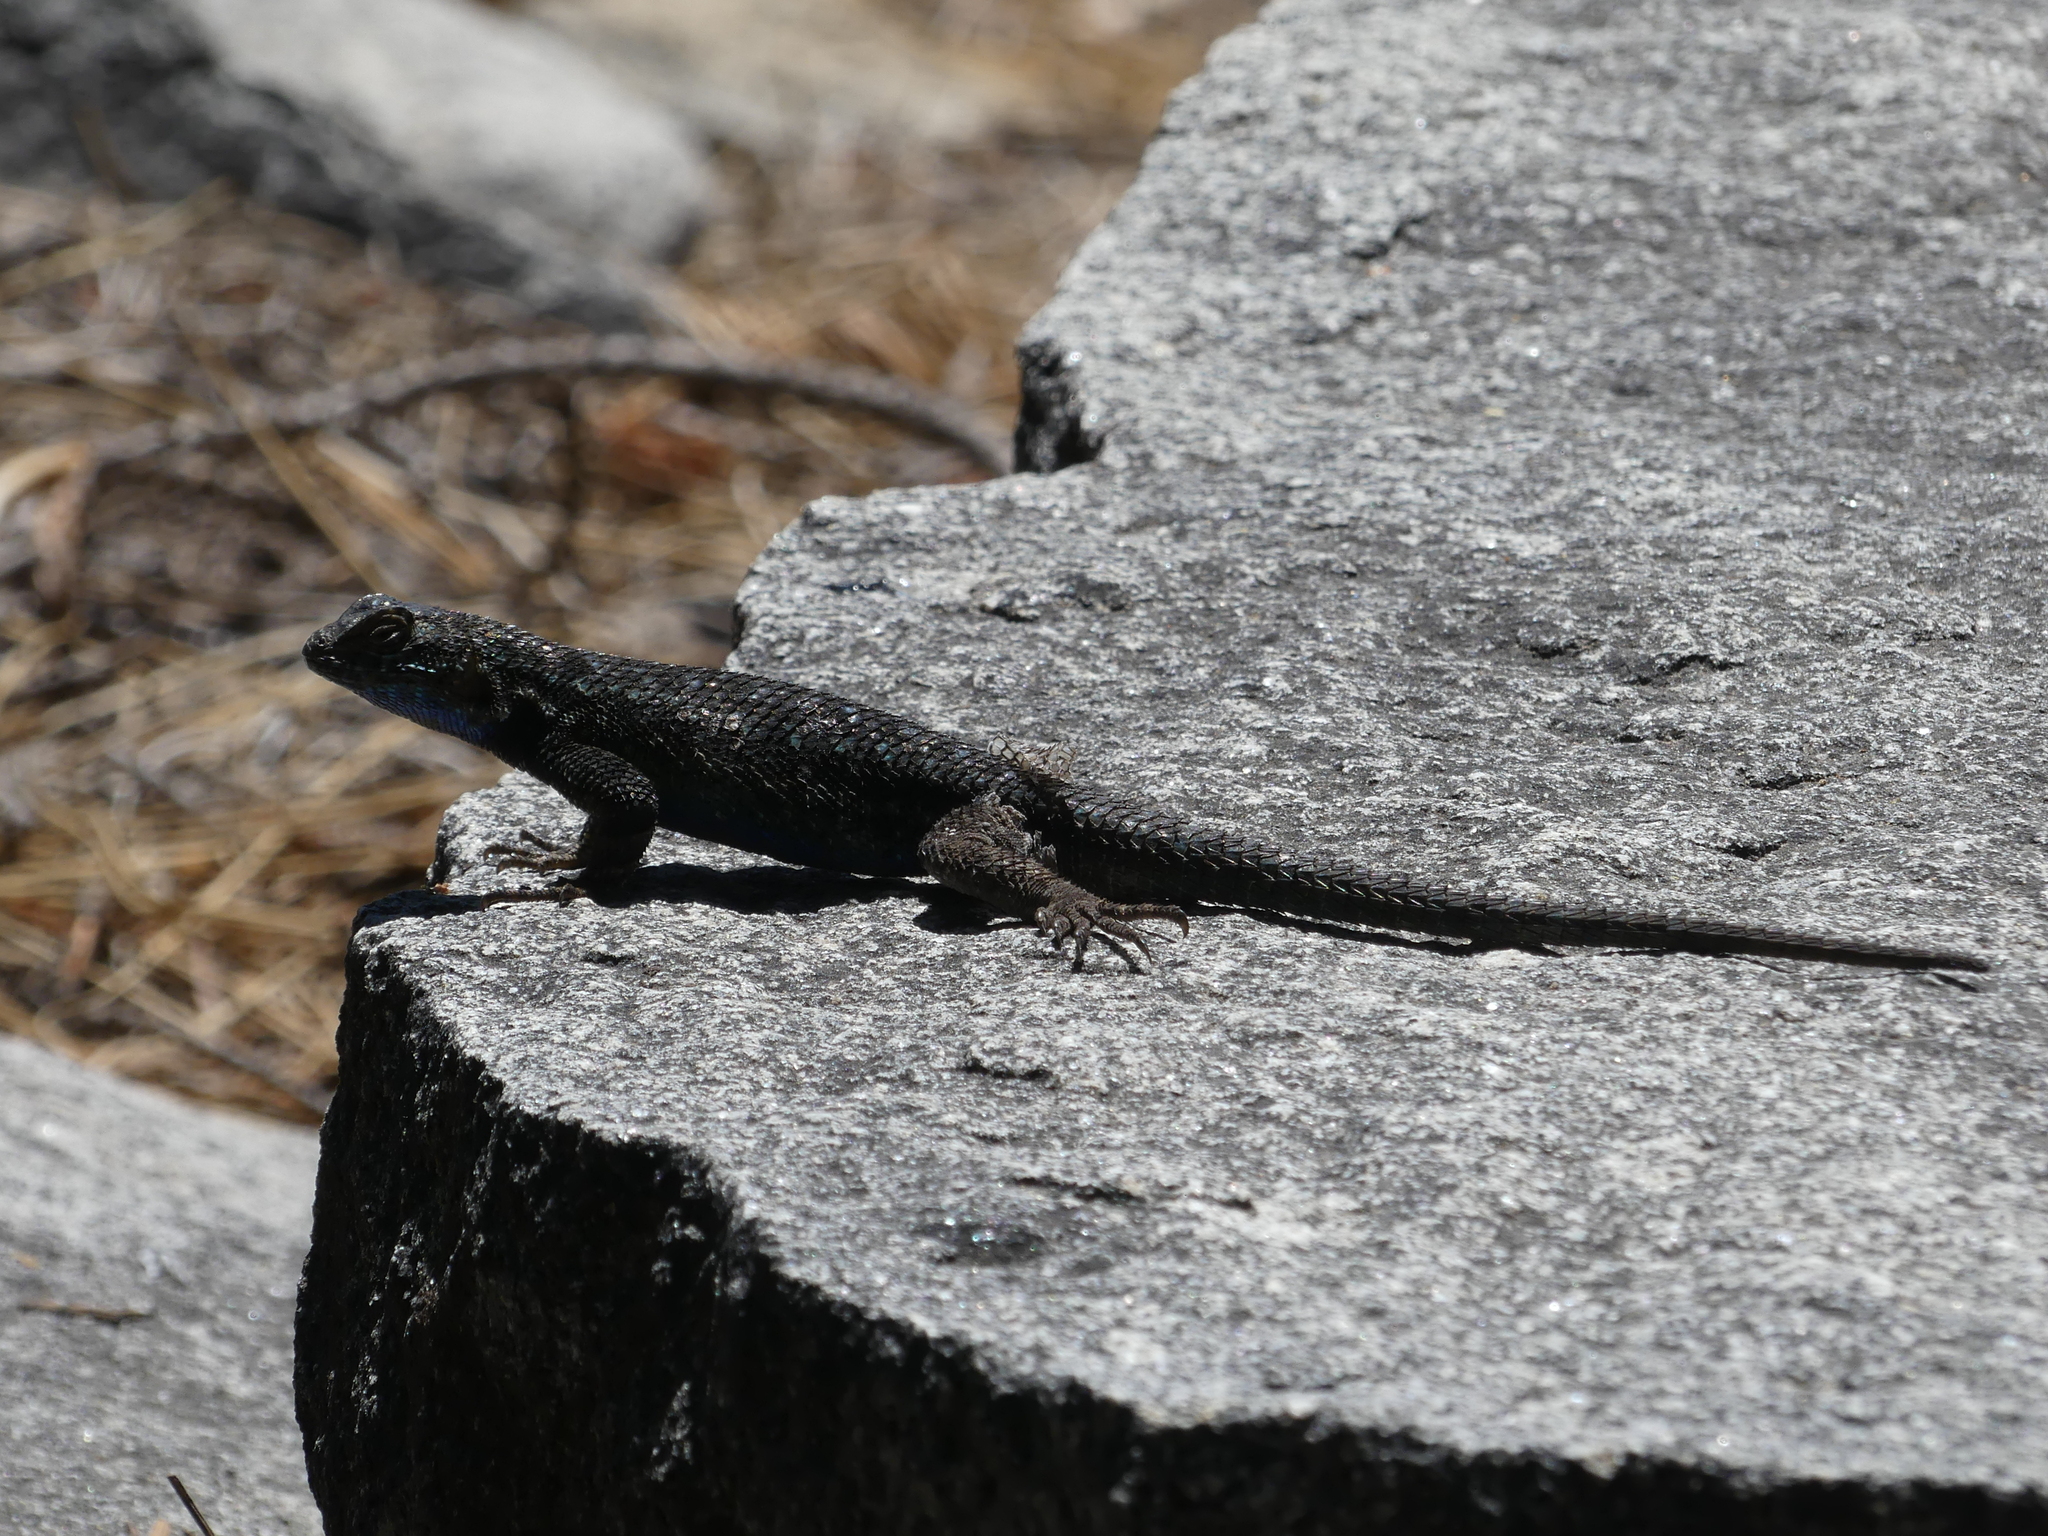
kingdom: Animalia
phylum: Chordata
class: Squamata
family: Phrynosomatidae
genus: Sceloporus
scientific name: Sceloporus occidentalis
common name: Western fence lizard
